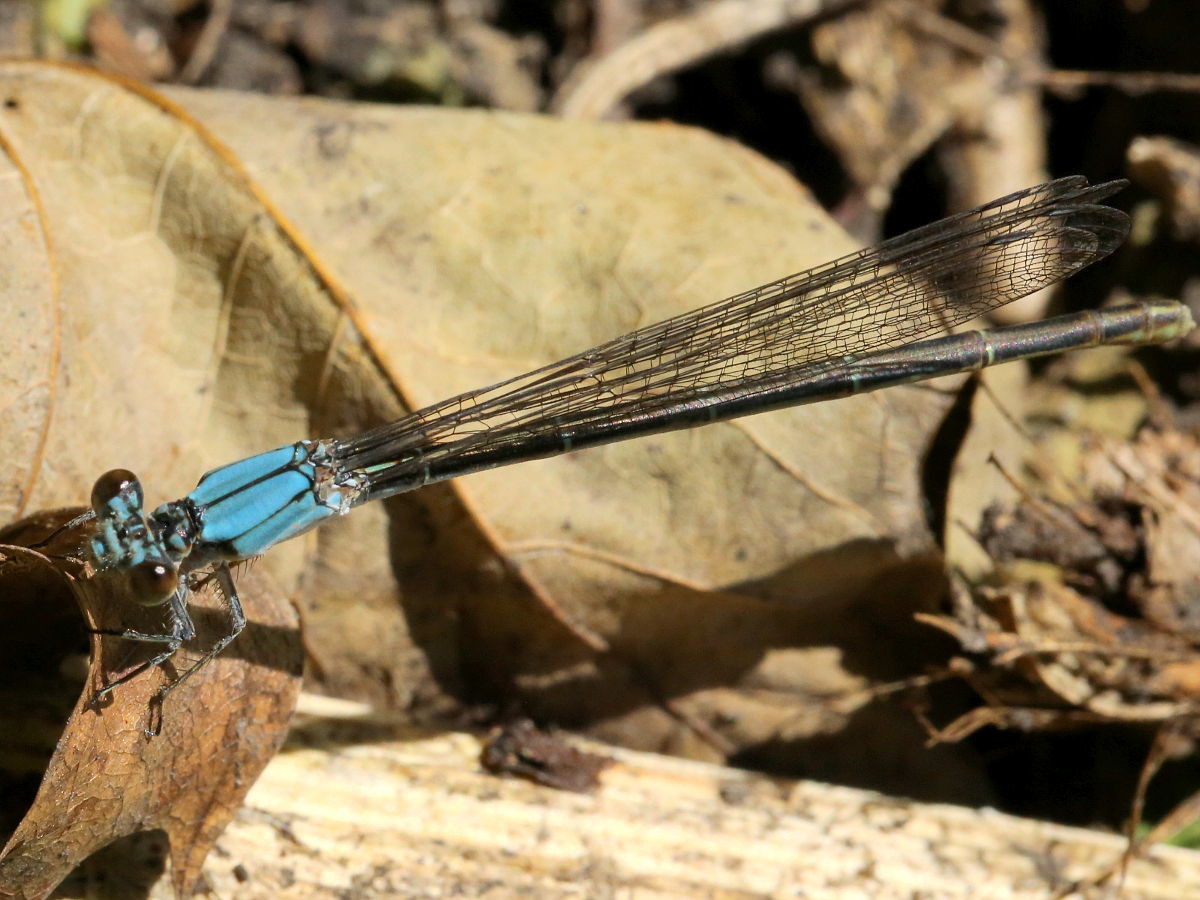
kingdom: Animalia
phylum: Arthropoda
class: Insecta
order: Odonata
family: Coenagrionidae
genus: Argia
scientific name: Argia moesta
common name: Powdered dancer
